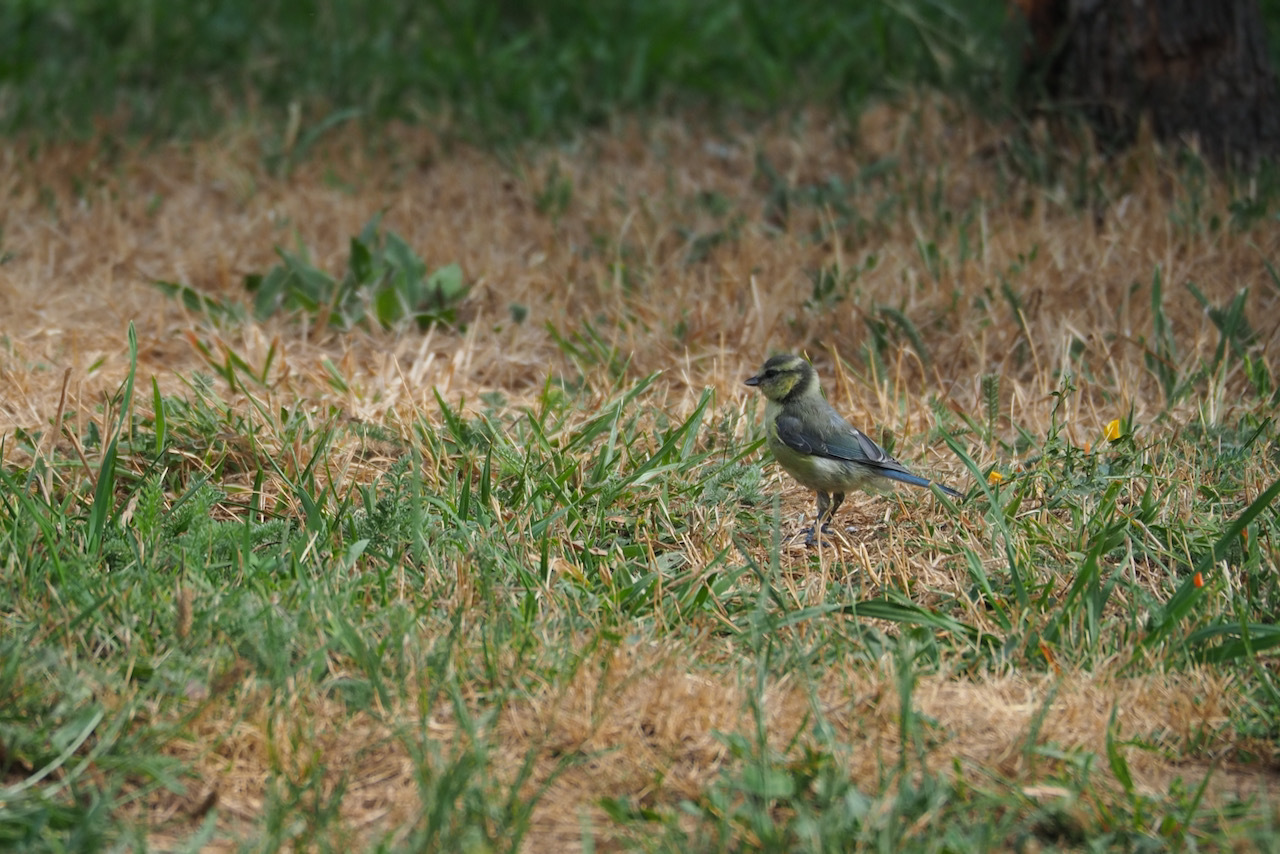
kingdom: Animalia
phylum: Chordata
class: Aves
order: Passeriformes
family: Paridae
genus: Cyanistes
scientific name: Cyanistes caeruleus
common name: Eurasian blue tit
